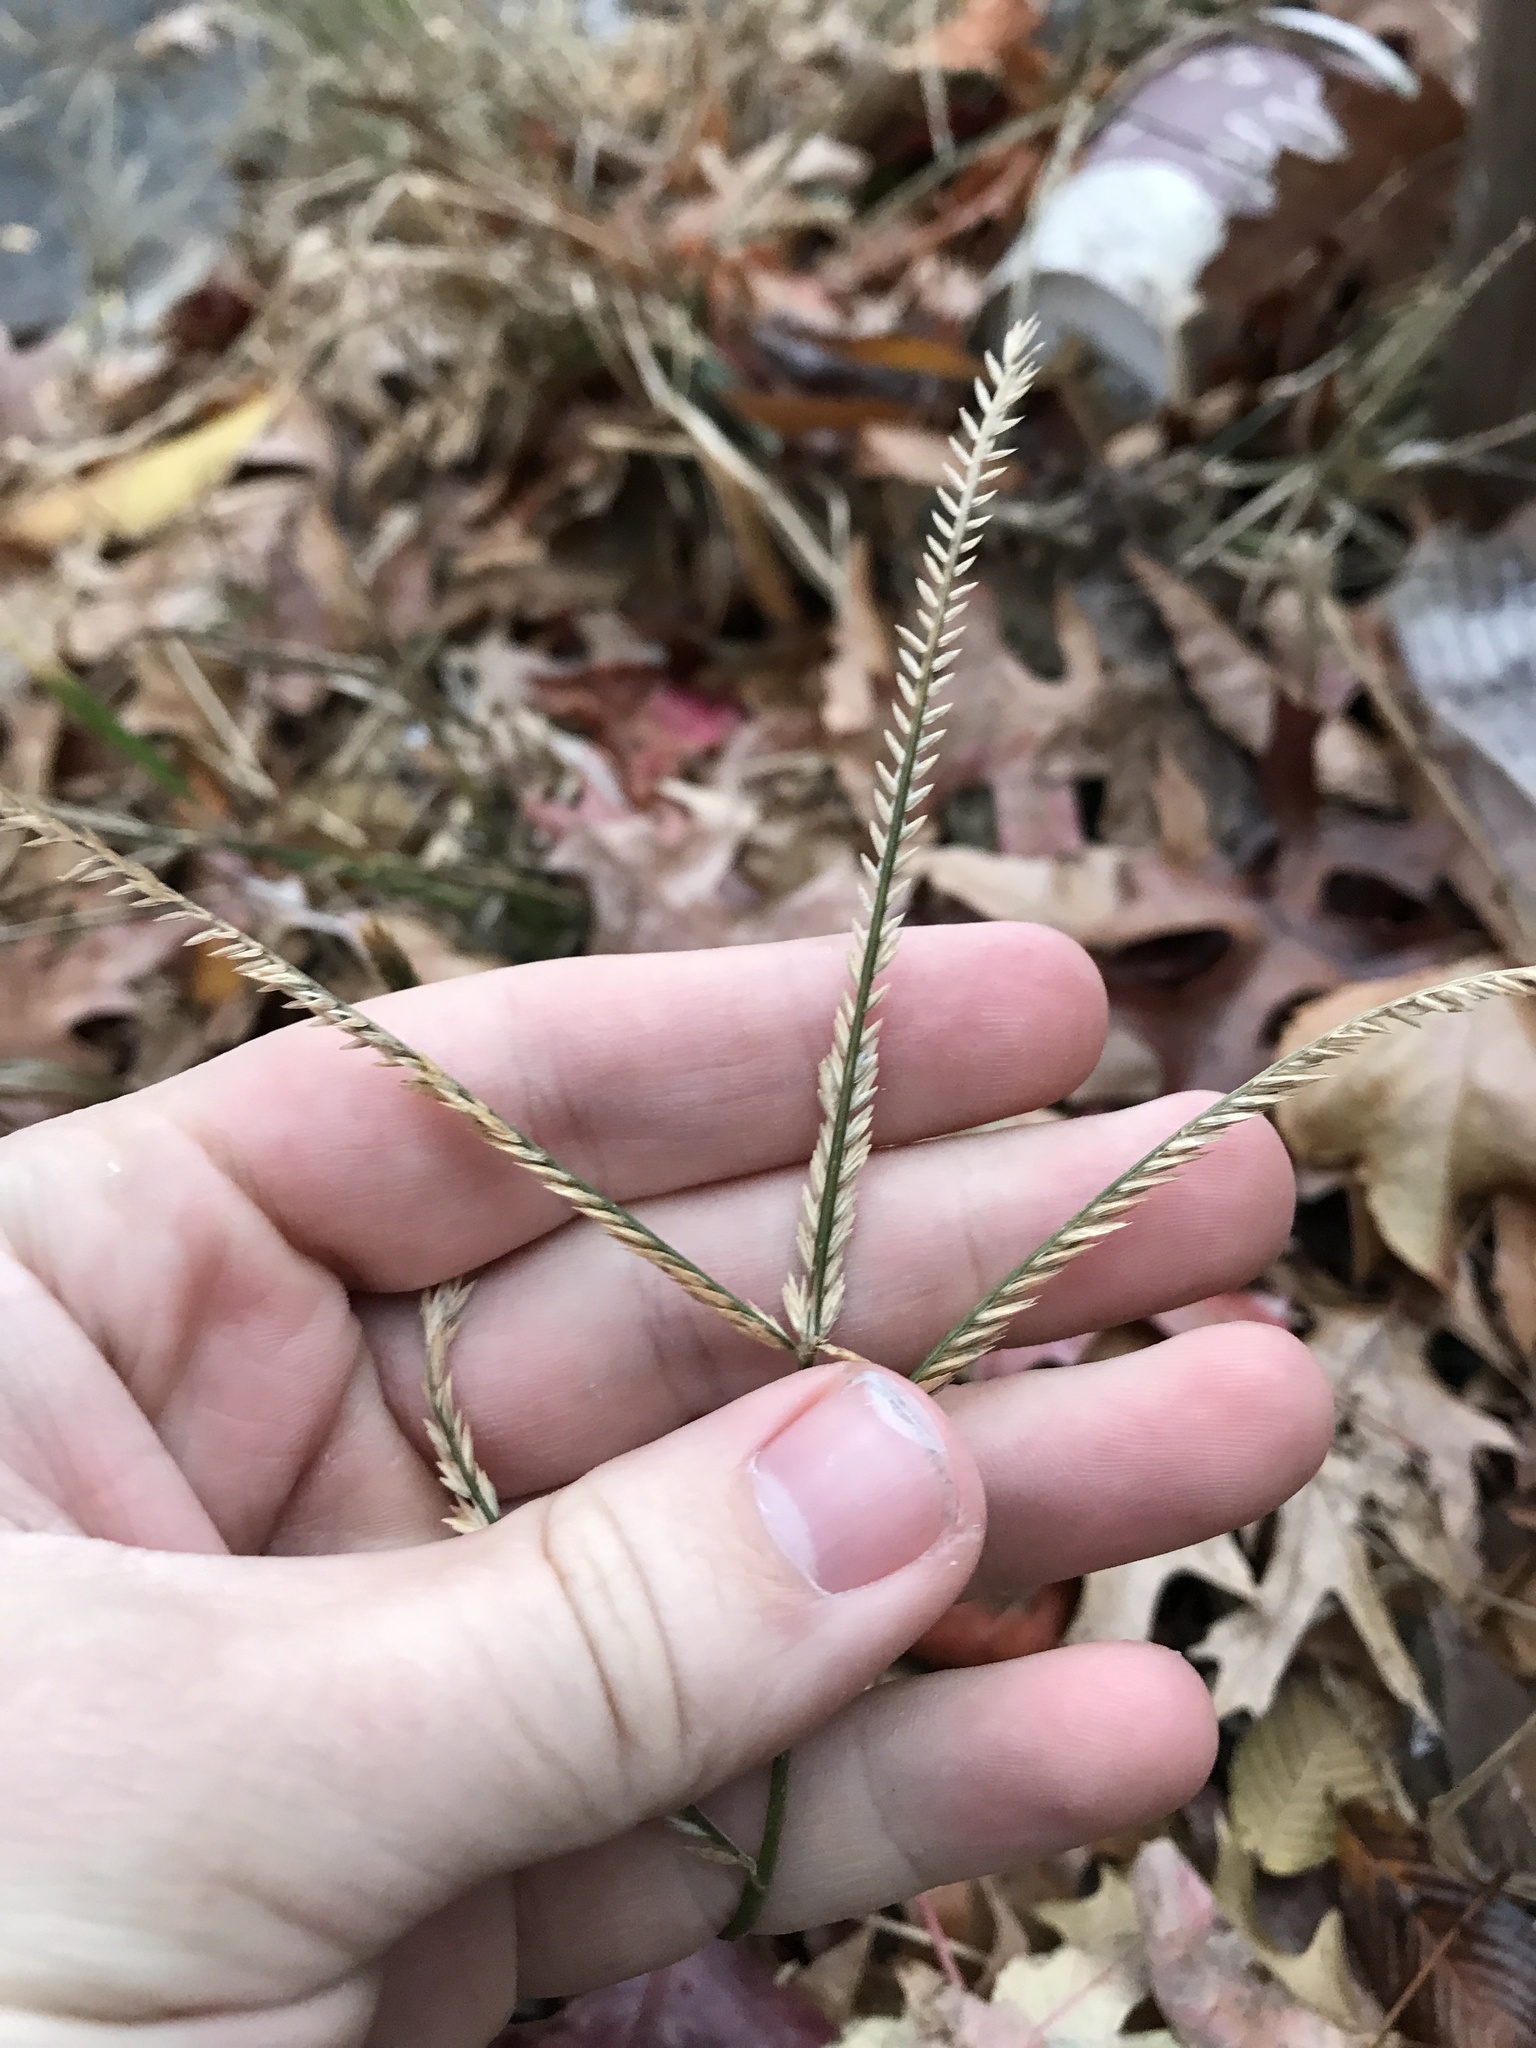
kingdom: Plantae
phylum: Tracheophyta
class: Liliopsida
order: Poales
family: Poaceae
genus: Eleusine
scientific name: Eleusine indica
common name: Yard-grass
